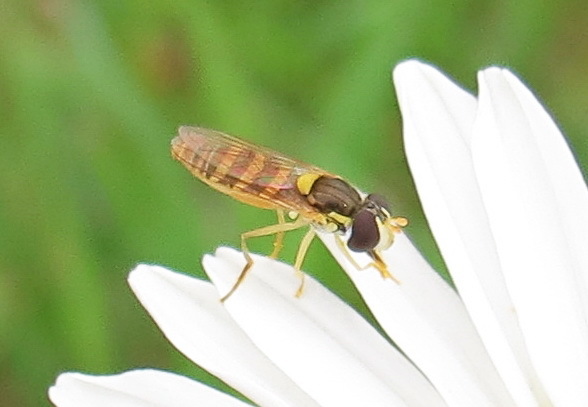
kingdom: Animalia
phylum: Arthropoda
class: Insecta
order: Diptera
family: Syrphidae
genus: Sphaerophoria
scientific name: Sphaerophoria contigua
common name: Tufted globetail
